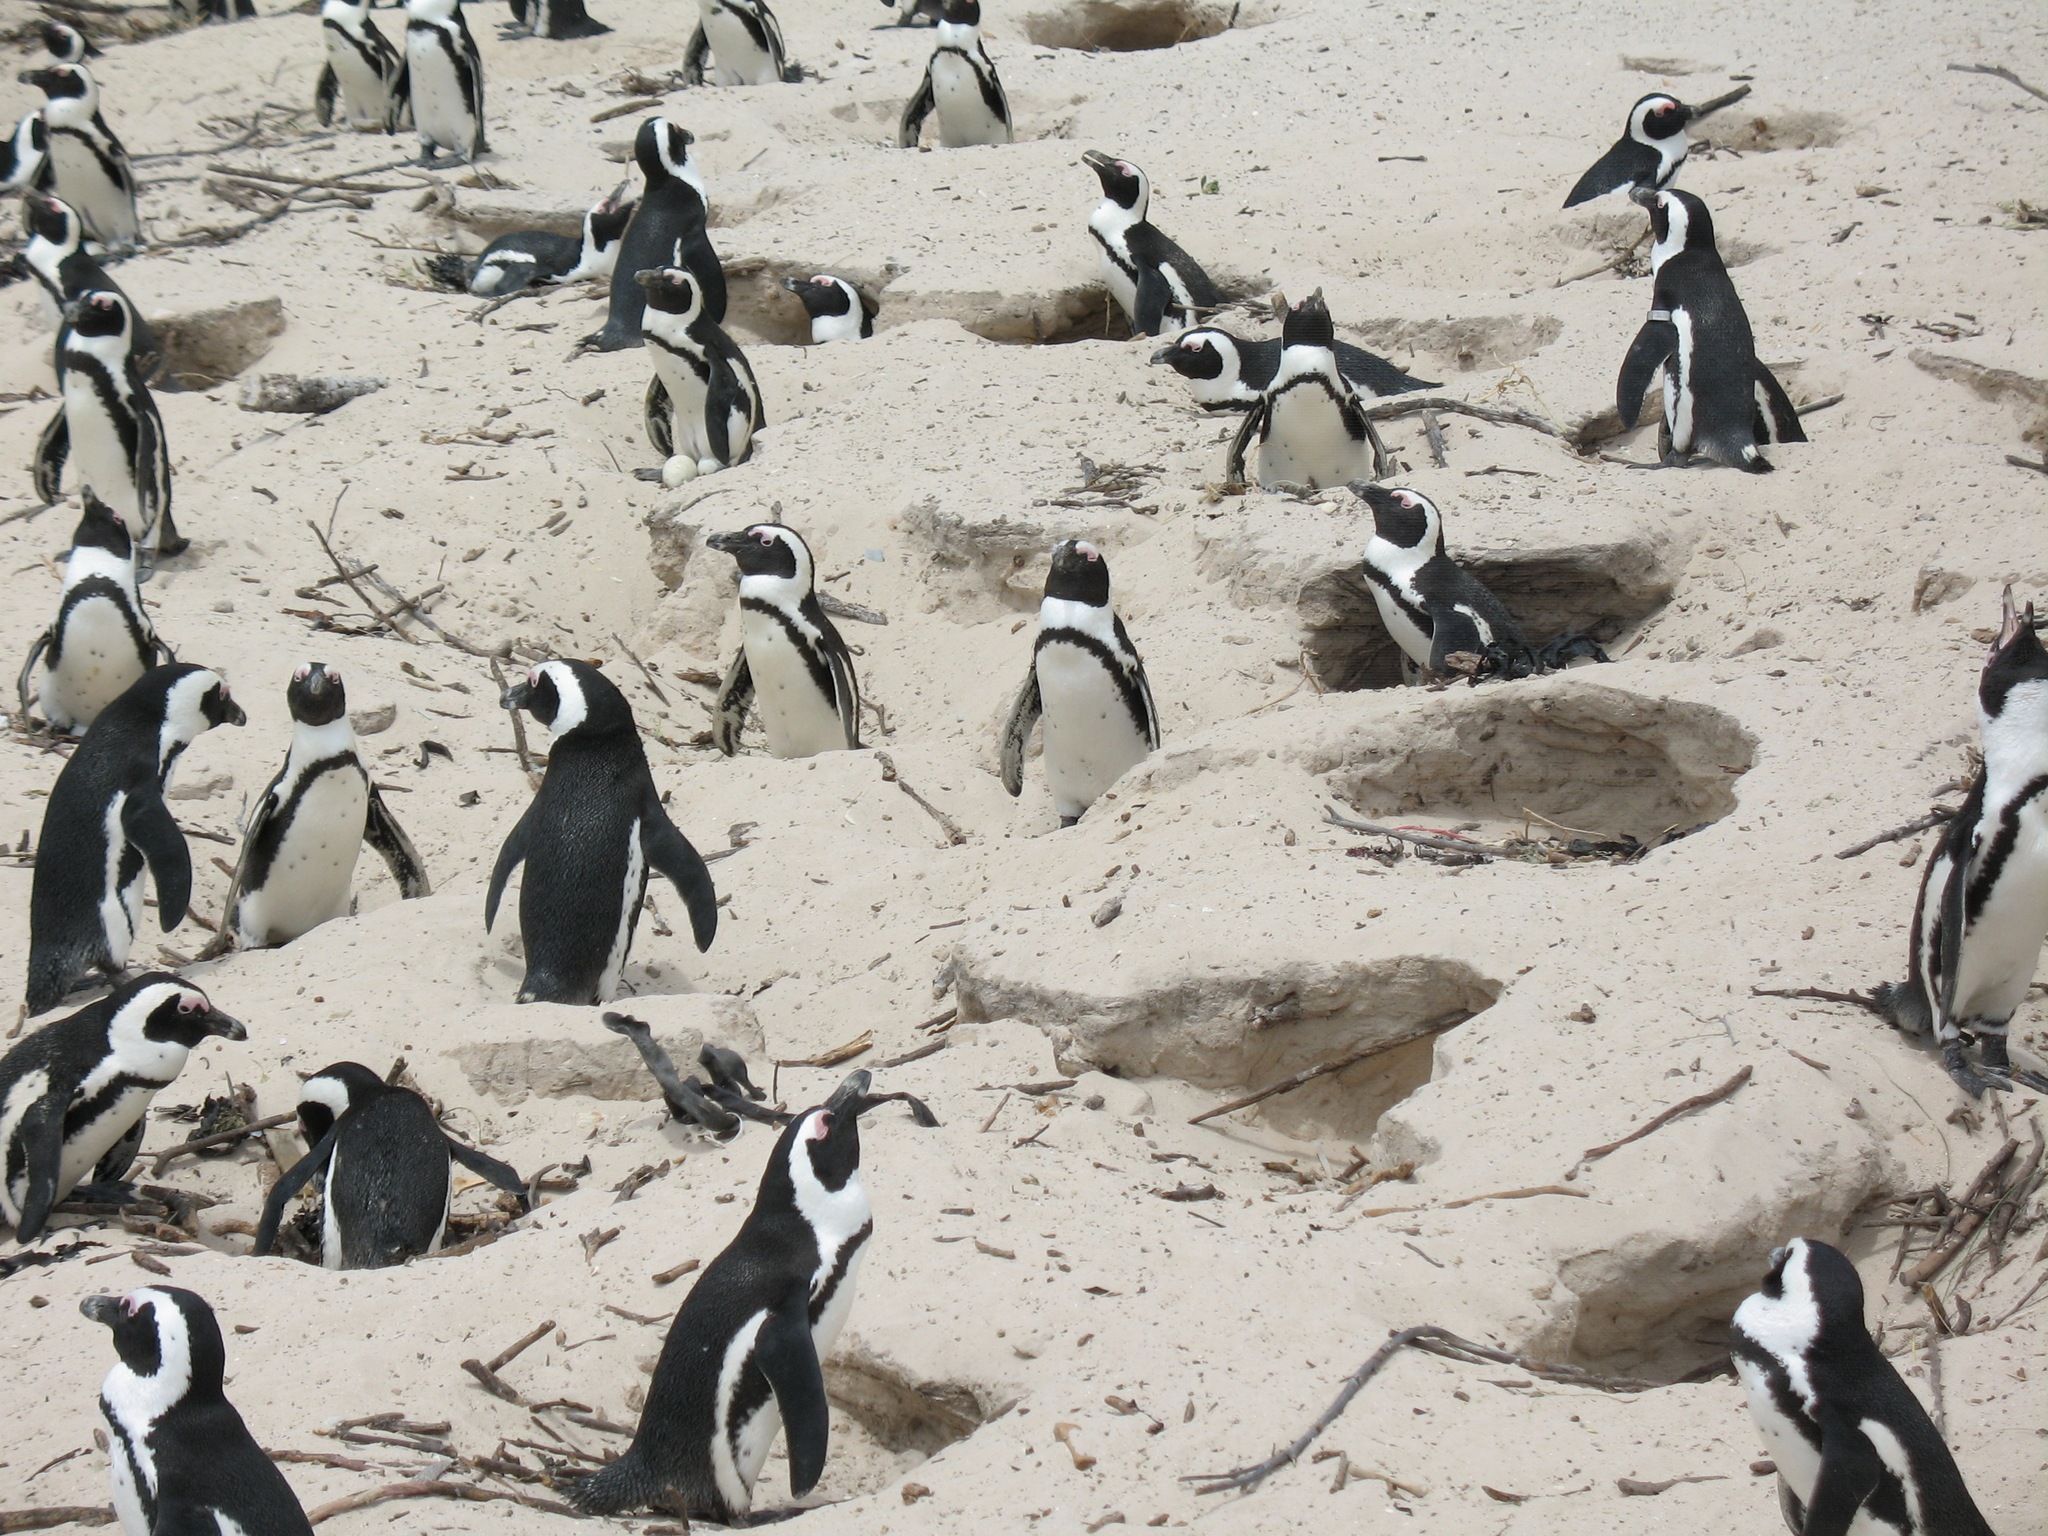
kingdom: Animalia
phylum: Chordata
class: Aves
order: Sphenisciformes
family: Spheniscidae
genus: Spheniscus
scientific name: Spheniscus demersus
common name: African penguin
